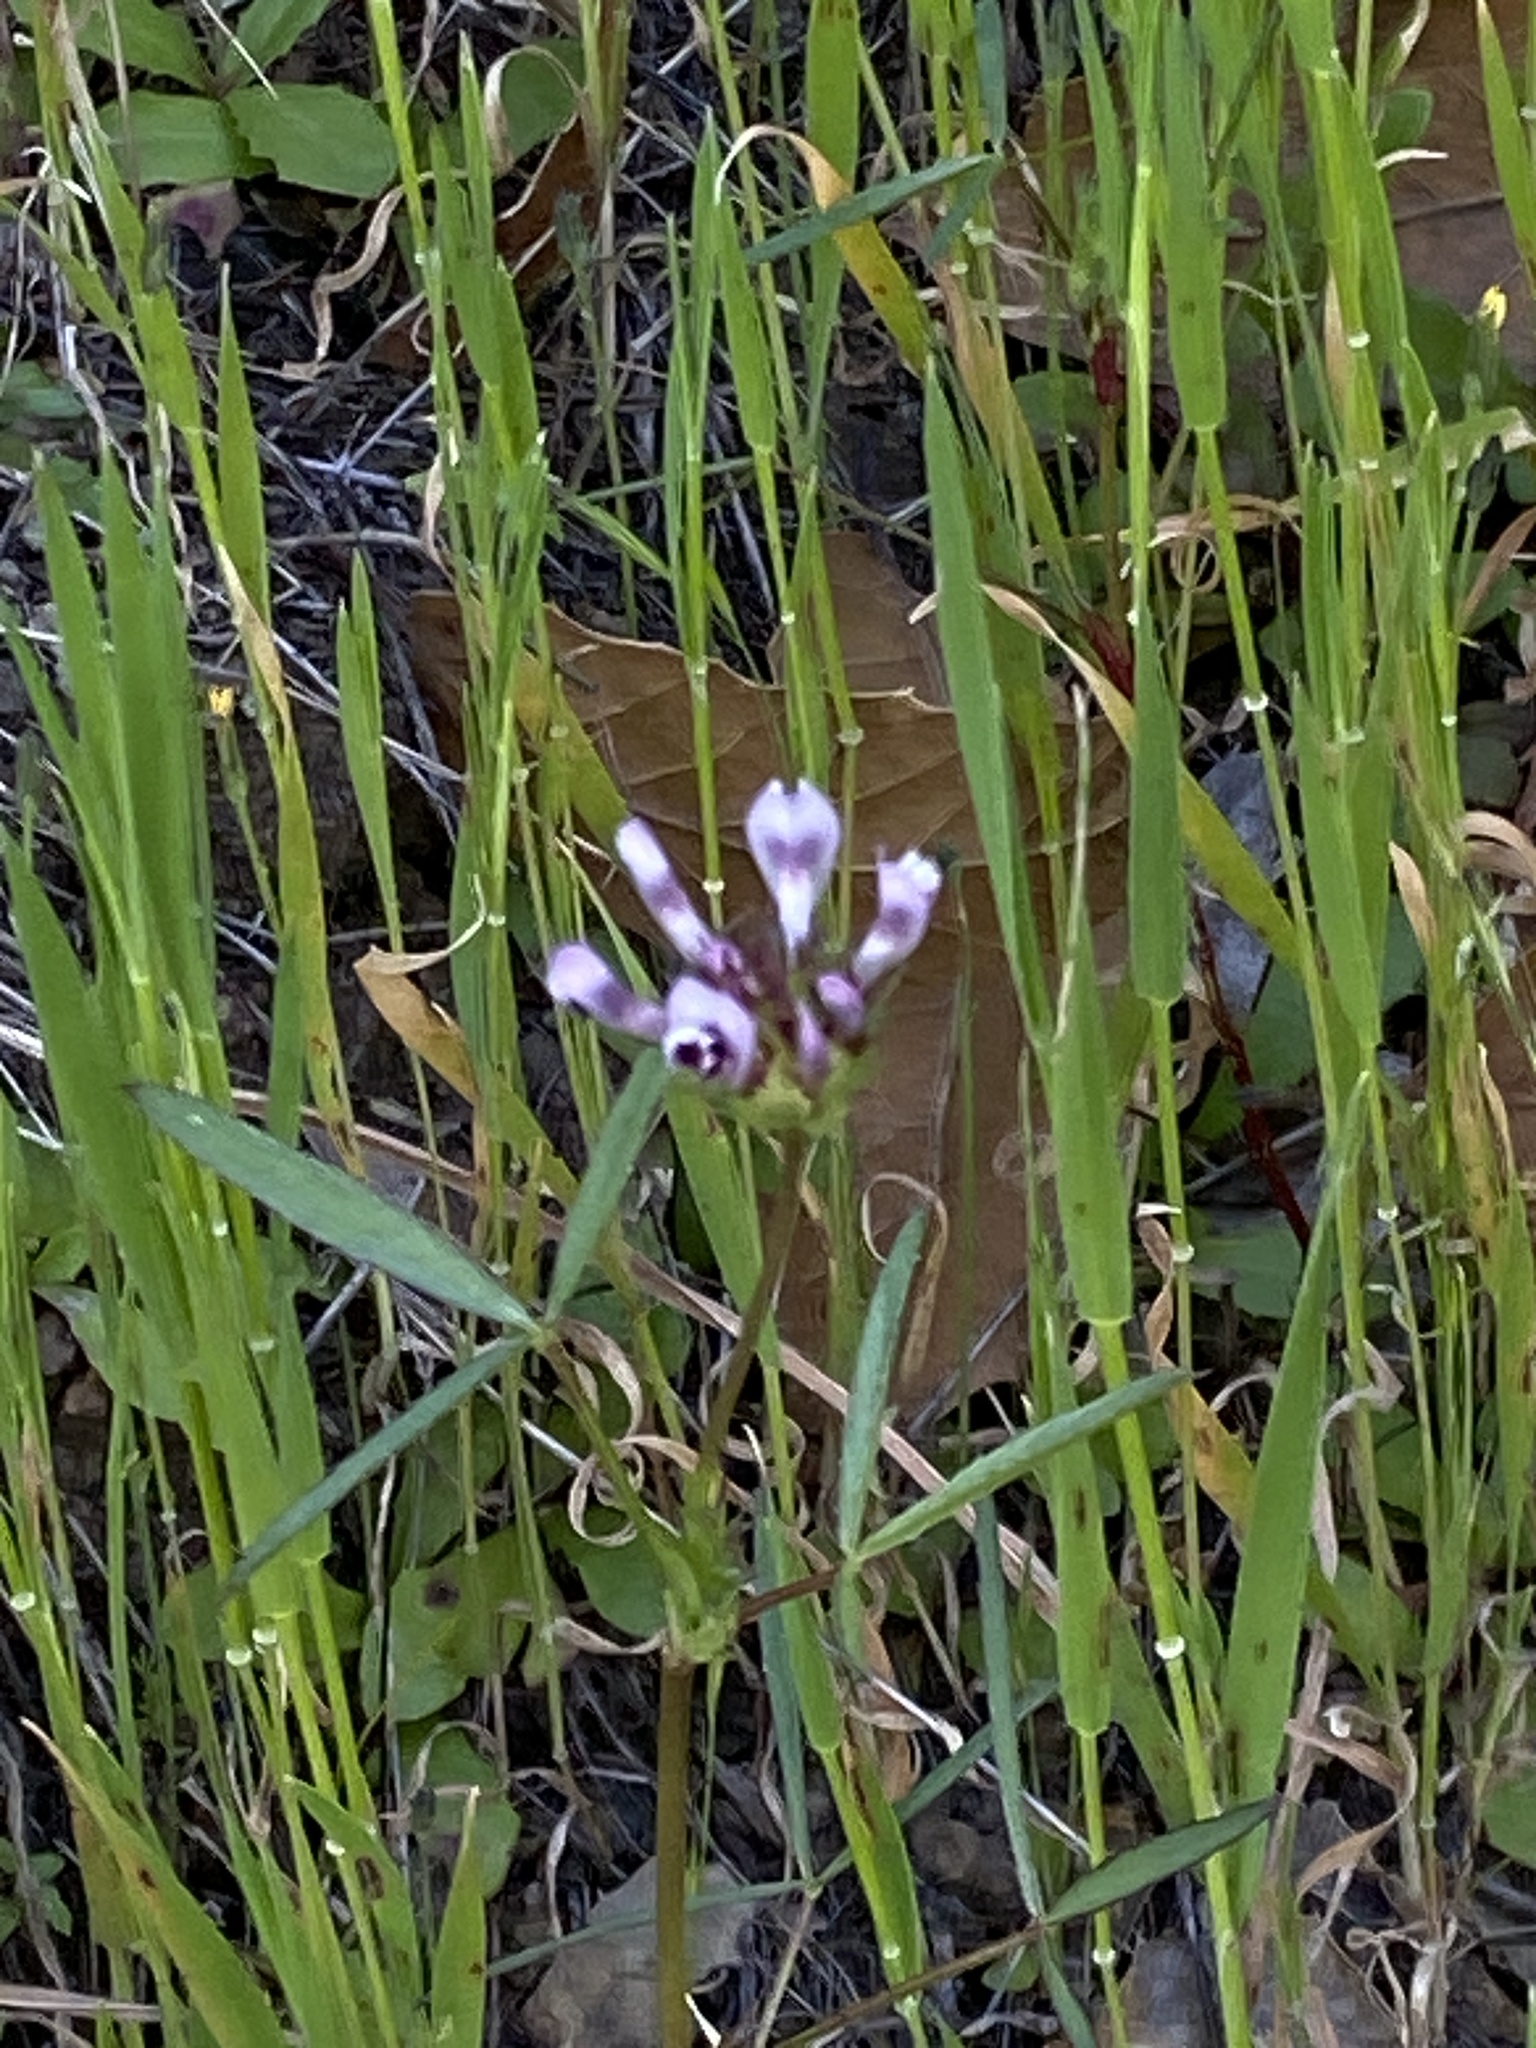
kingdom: Plantae
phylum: Tracheophyta
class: Magnoliopsida
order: Fabales
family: Fabaceae
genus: Trifolium
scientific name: Trifolium willdenovii
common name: Tomcat clover
